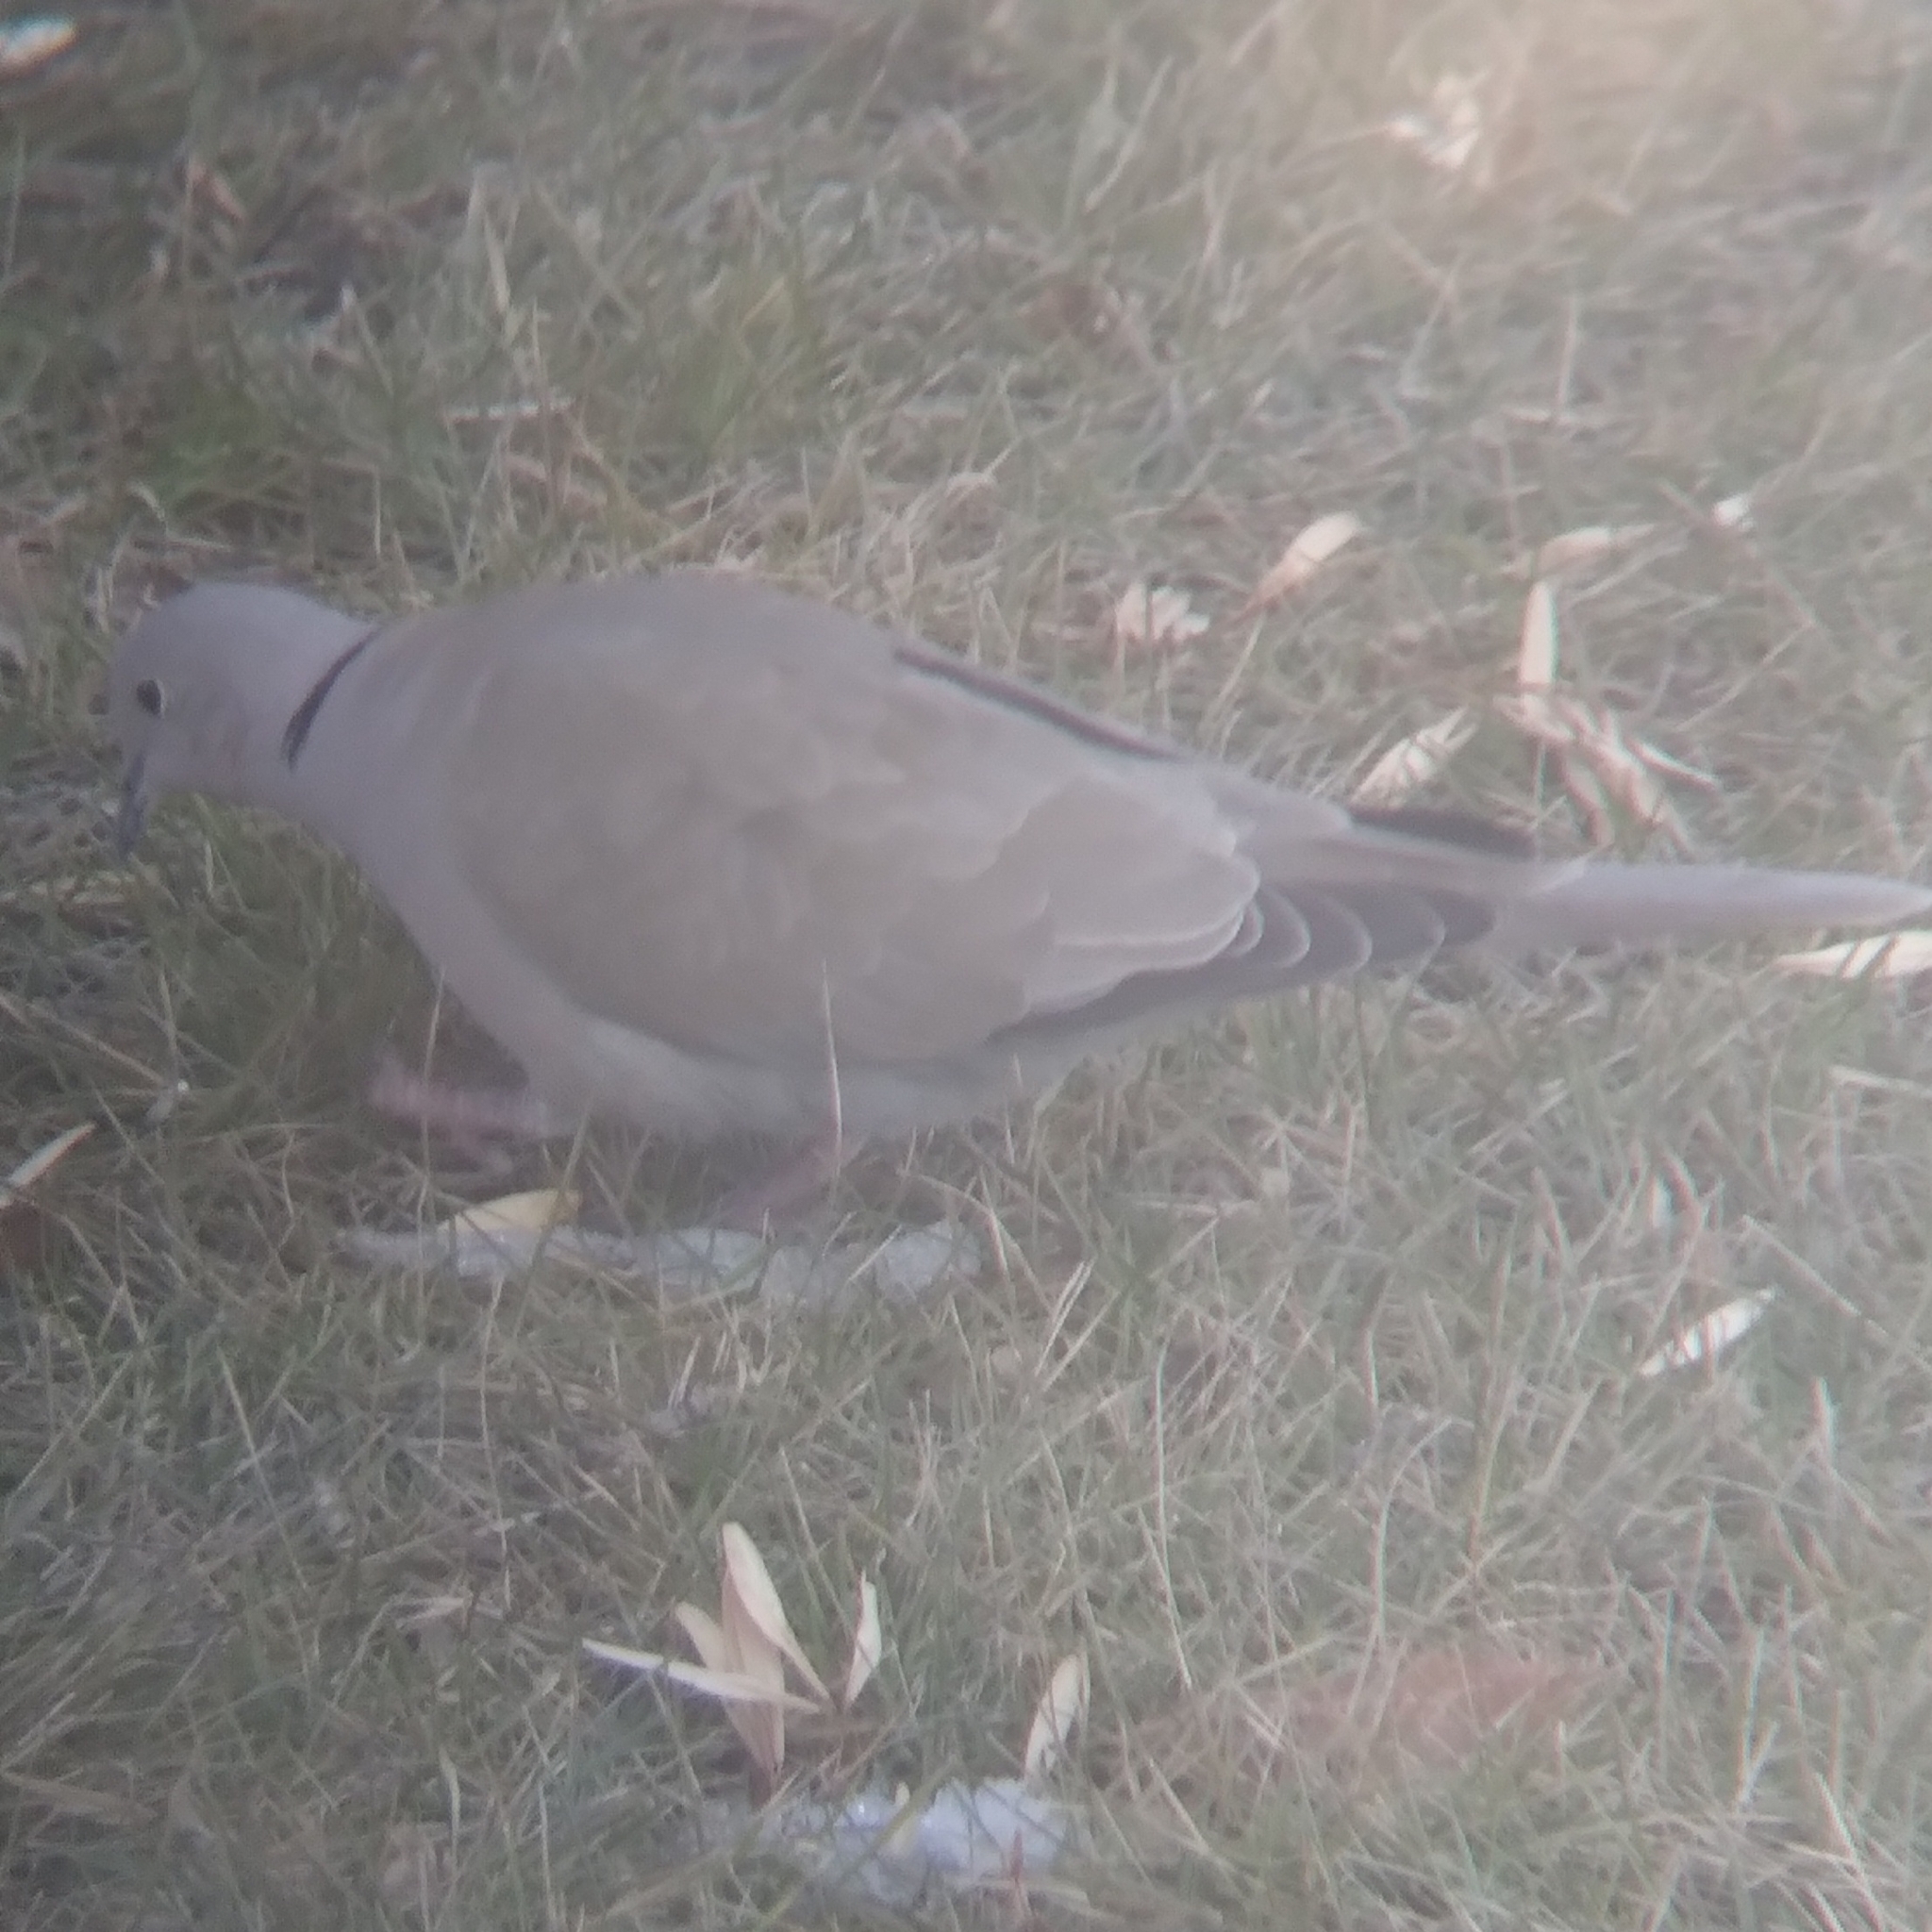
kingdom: Animalia
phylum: Chordata
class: Aves
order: Columbiformes
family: Columbidae
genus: Streptopelia
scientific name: Streptopelia decaocto
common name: Eurasian collared dove
